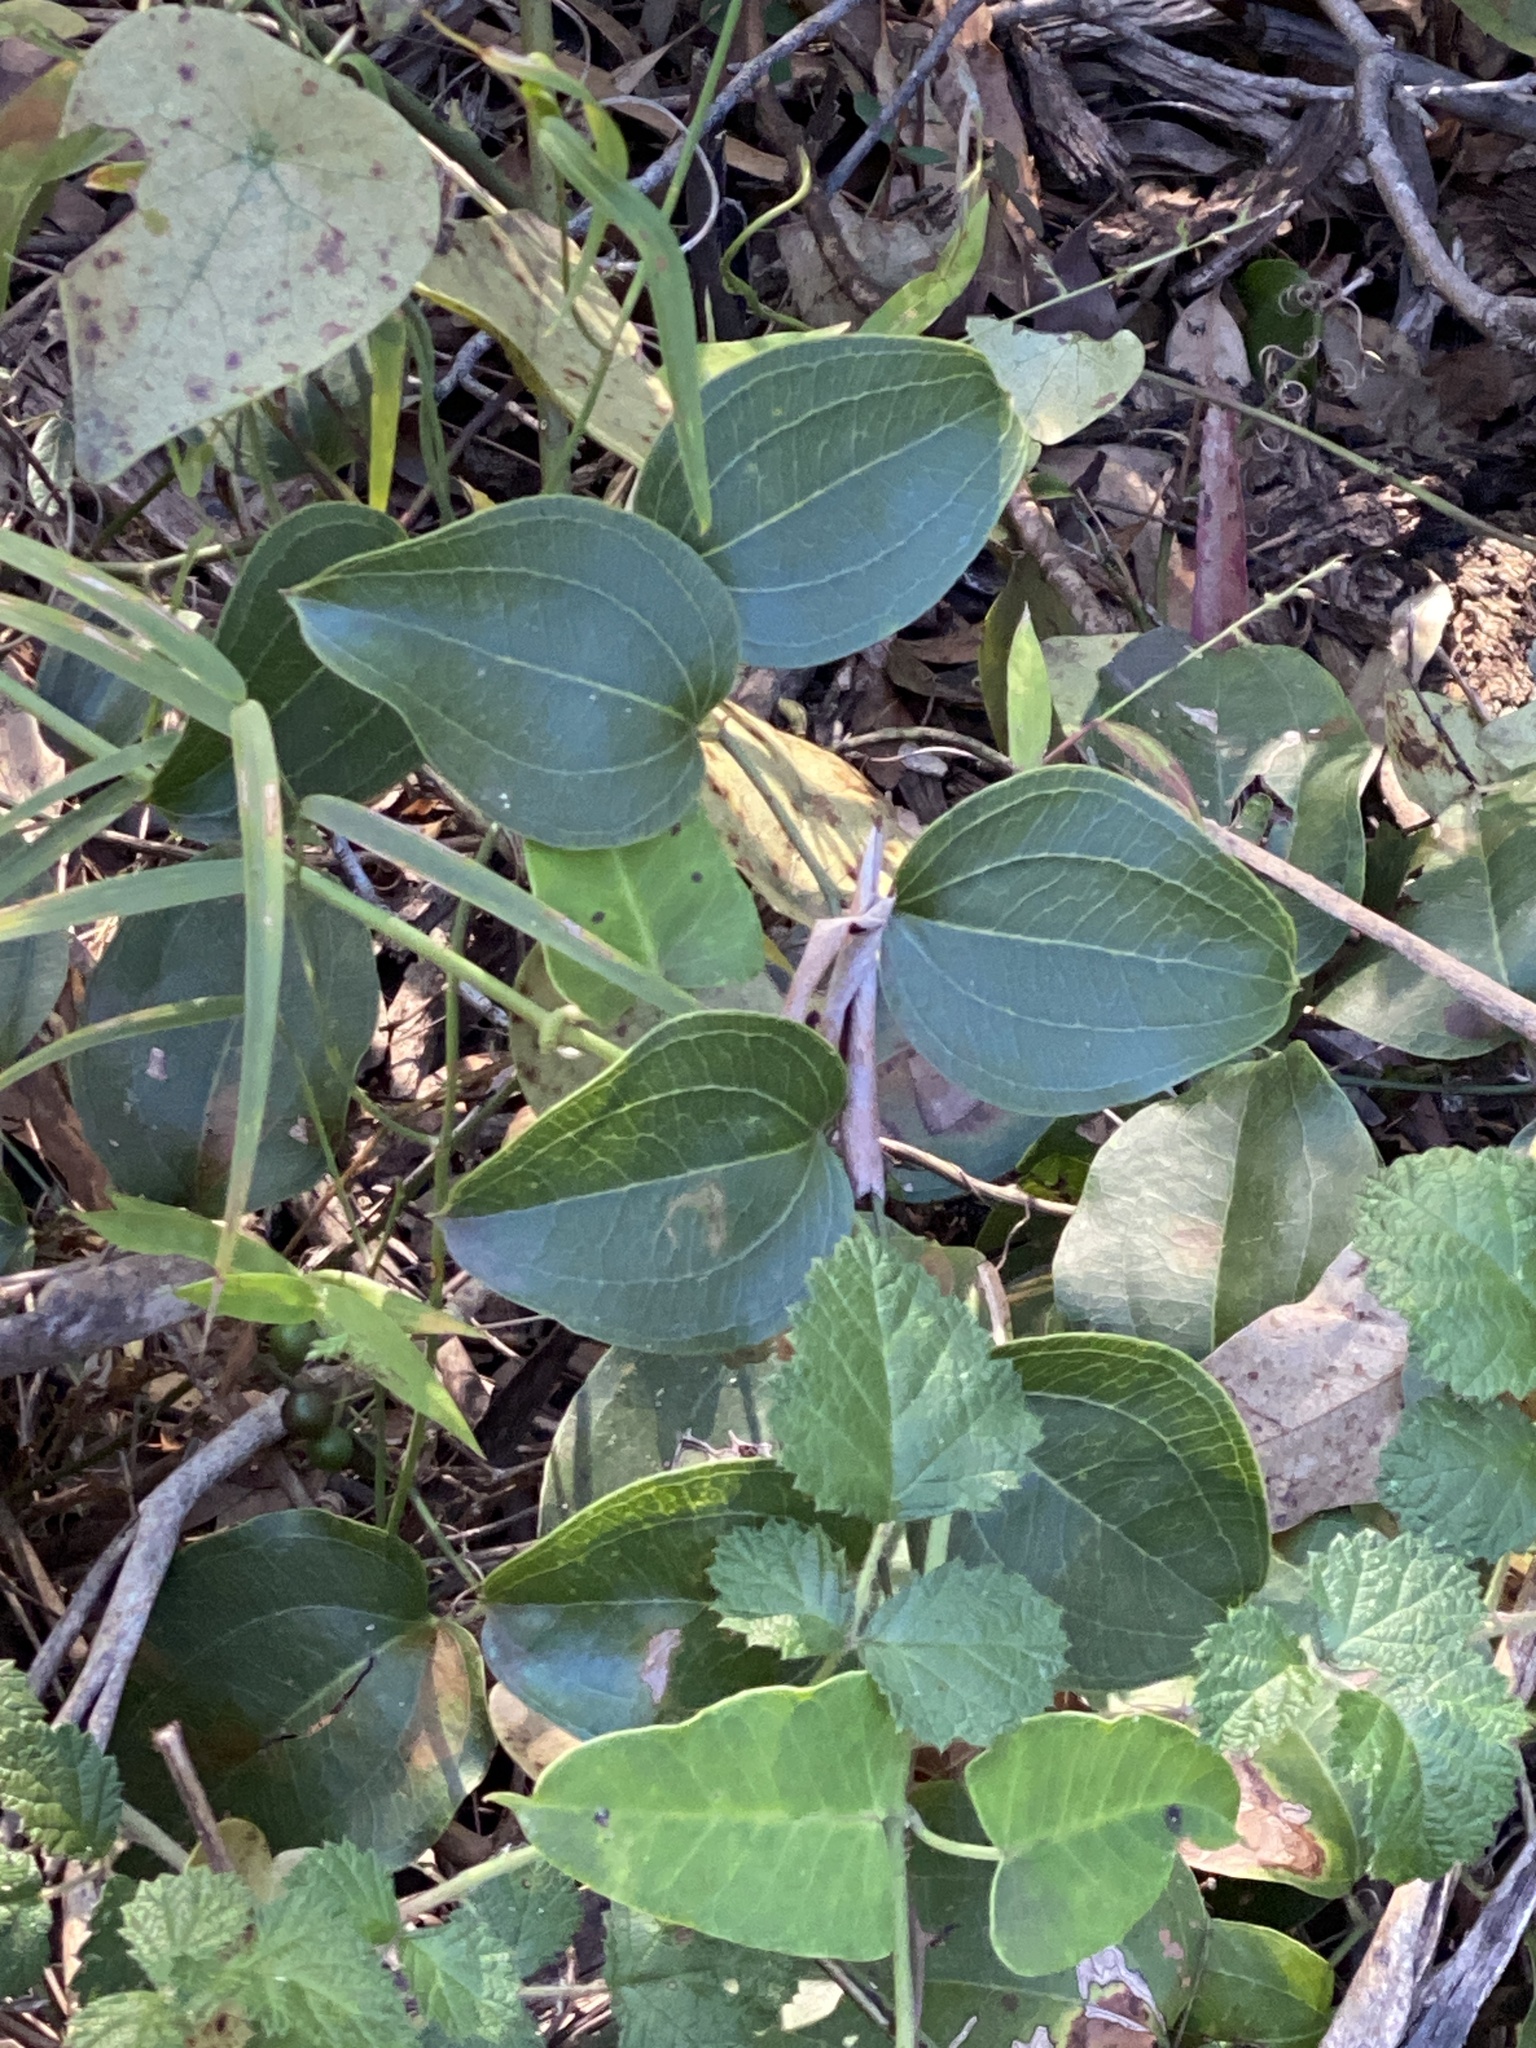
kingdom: Plantae
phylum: Tracheophyta
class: Liliopsida
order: Liliales
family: Smilacaceae
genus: Smilax
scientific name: Smilax australis
